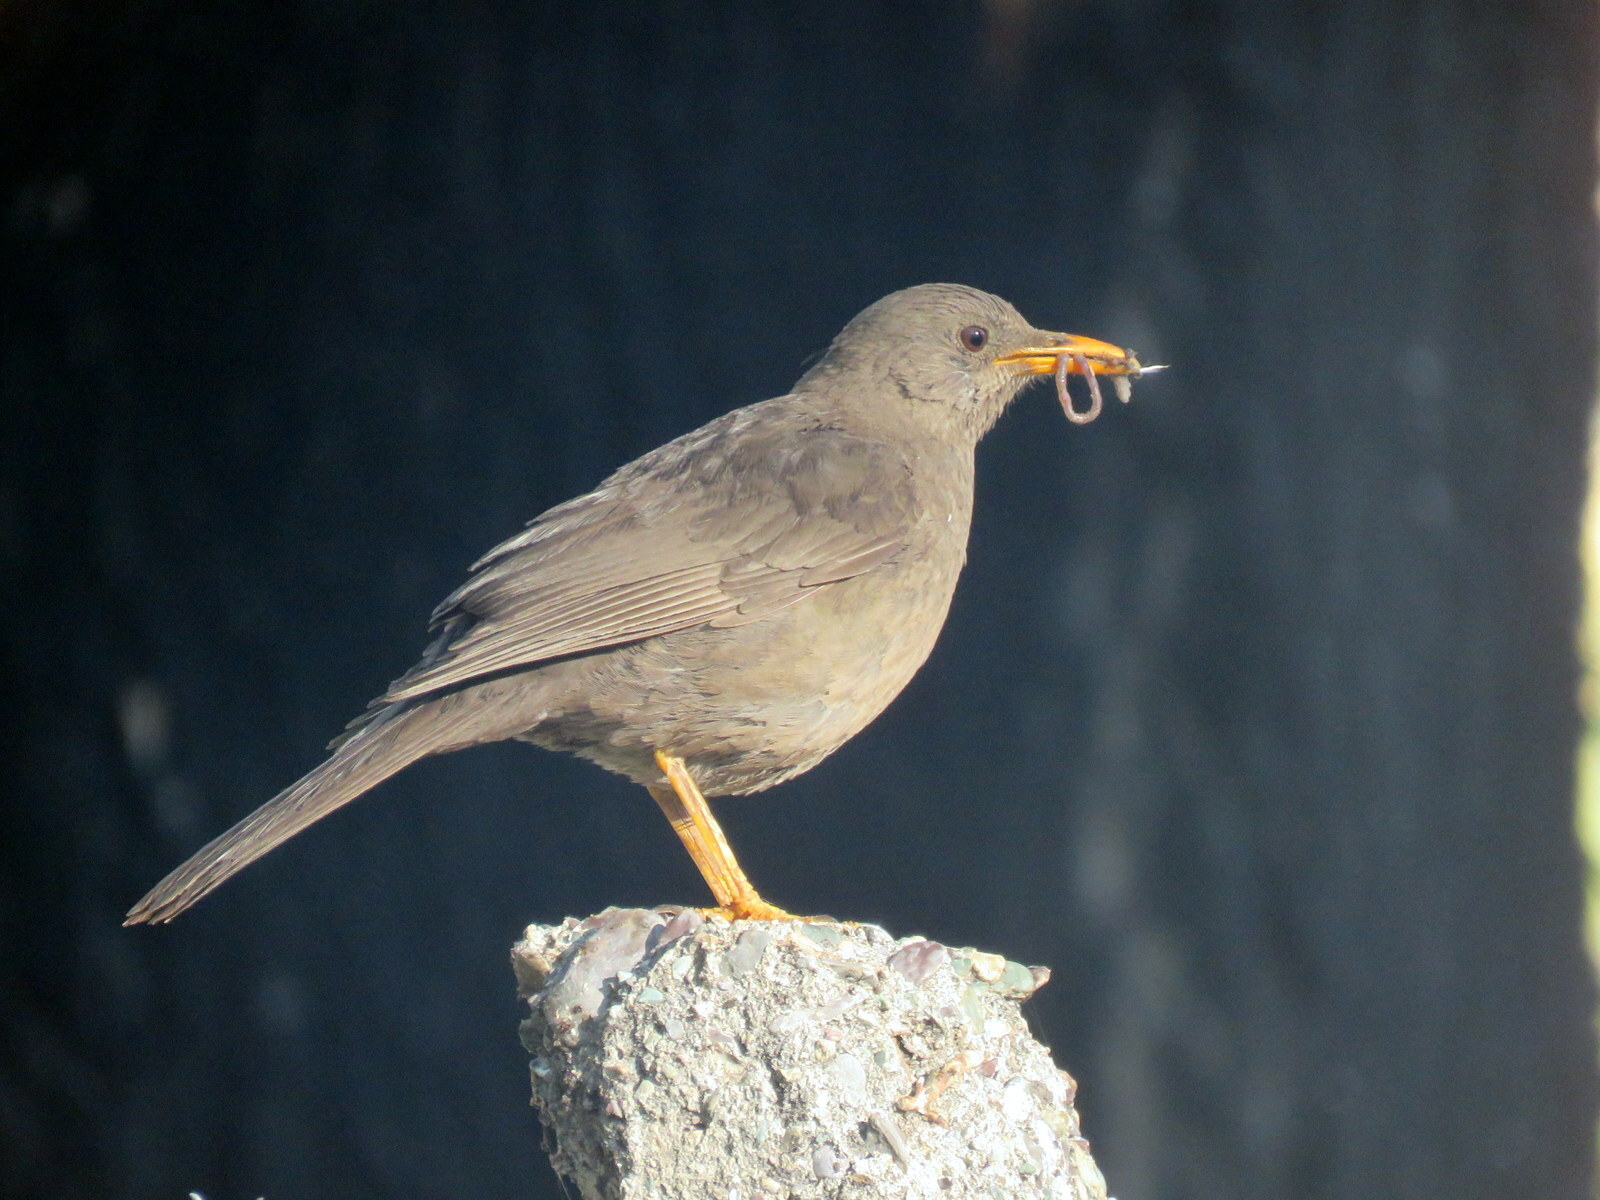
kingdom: Animalia
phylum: Chordata
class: Aves
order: Passeriformes
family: Turdidae
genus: Turdus
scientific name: Turdus chiguanco
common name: Chiguanco thrush
